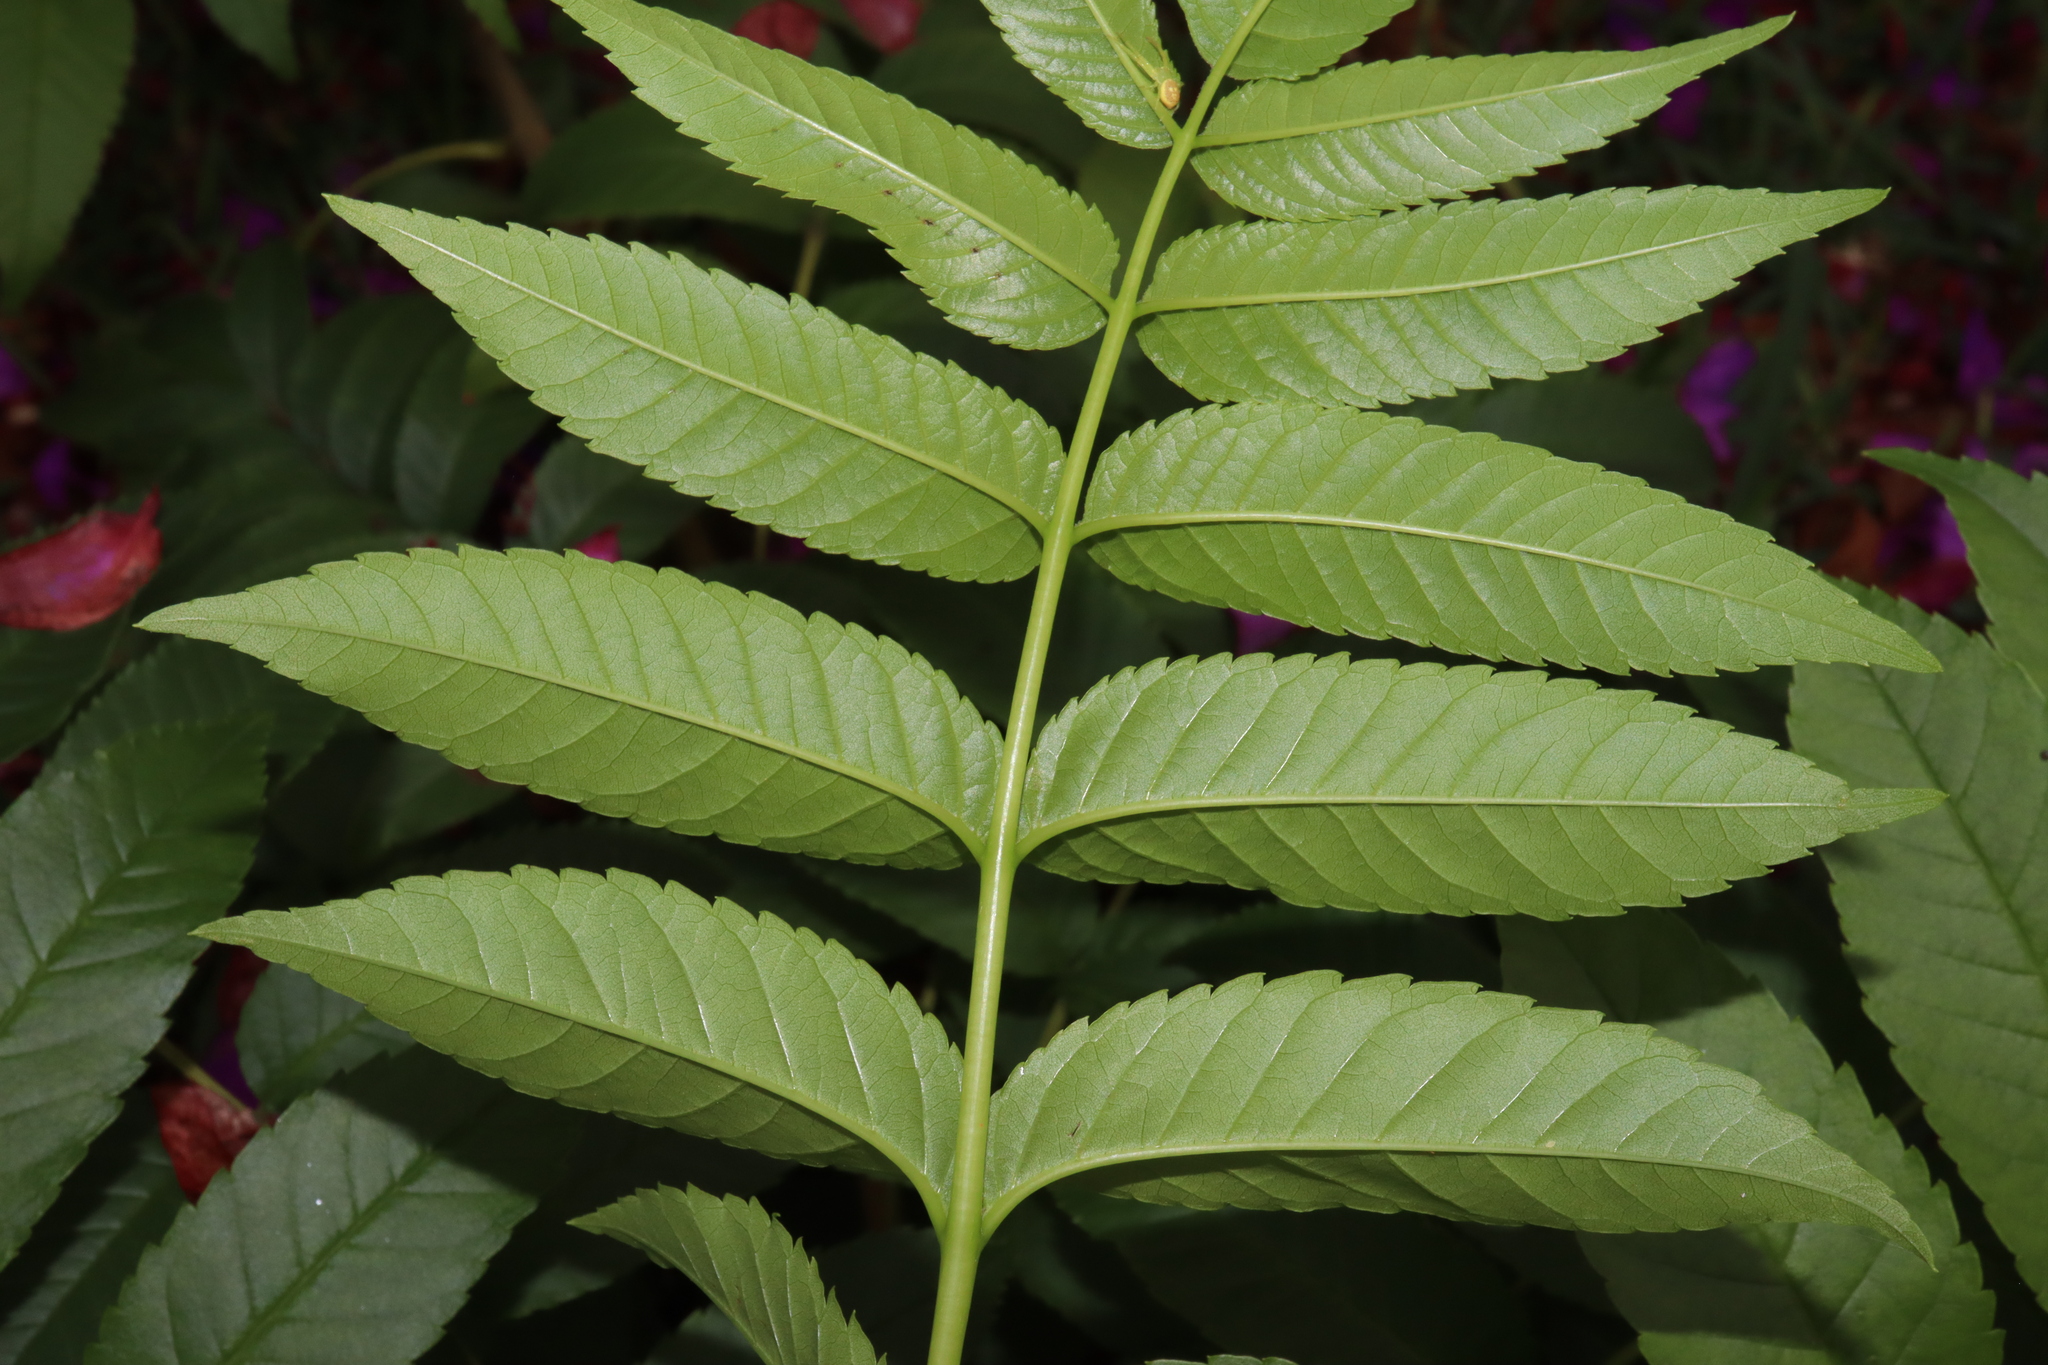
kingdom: Plantae
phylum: Tracheophyta
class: Magnoliopsida
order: Lamiales
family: Bignoniaceae
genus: Tecoma
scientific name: Tecoma stans
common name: Yellow trumpetbush
